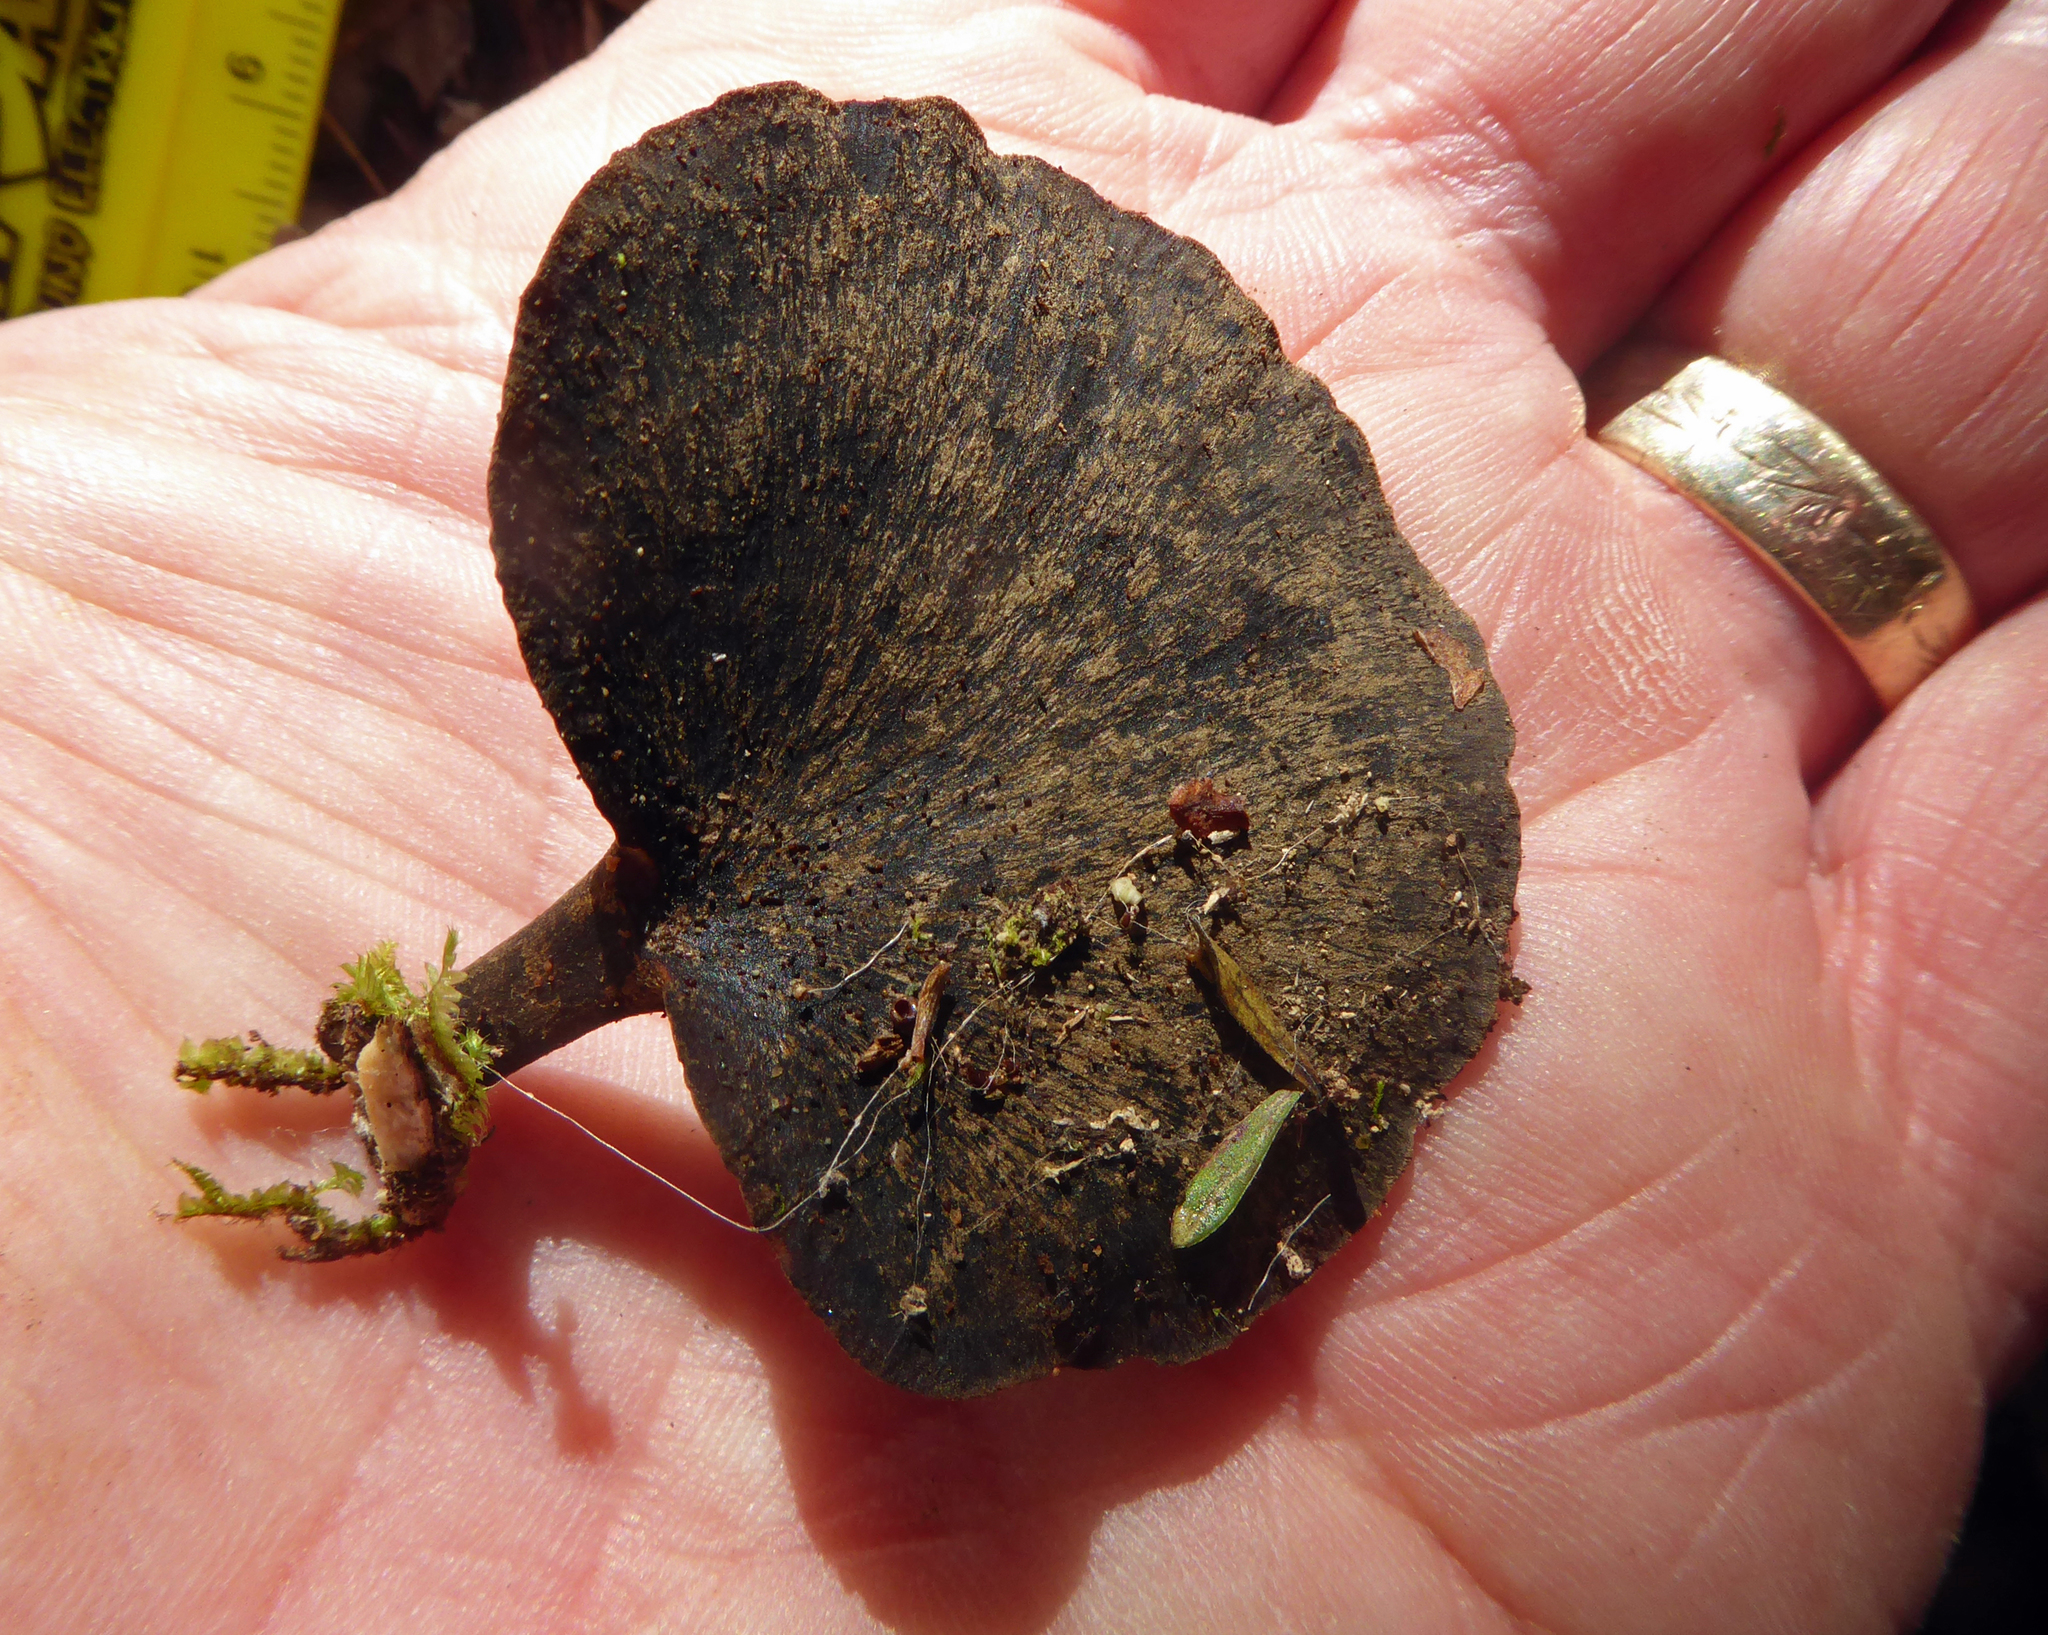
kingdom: Fungi
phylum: Basidiomycota
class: Agaricomycetes
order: Polyporales
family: Polyporaceae
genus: Picipes
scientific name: Picipes dictyopus
